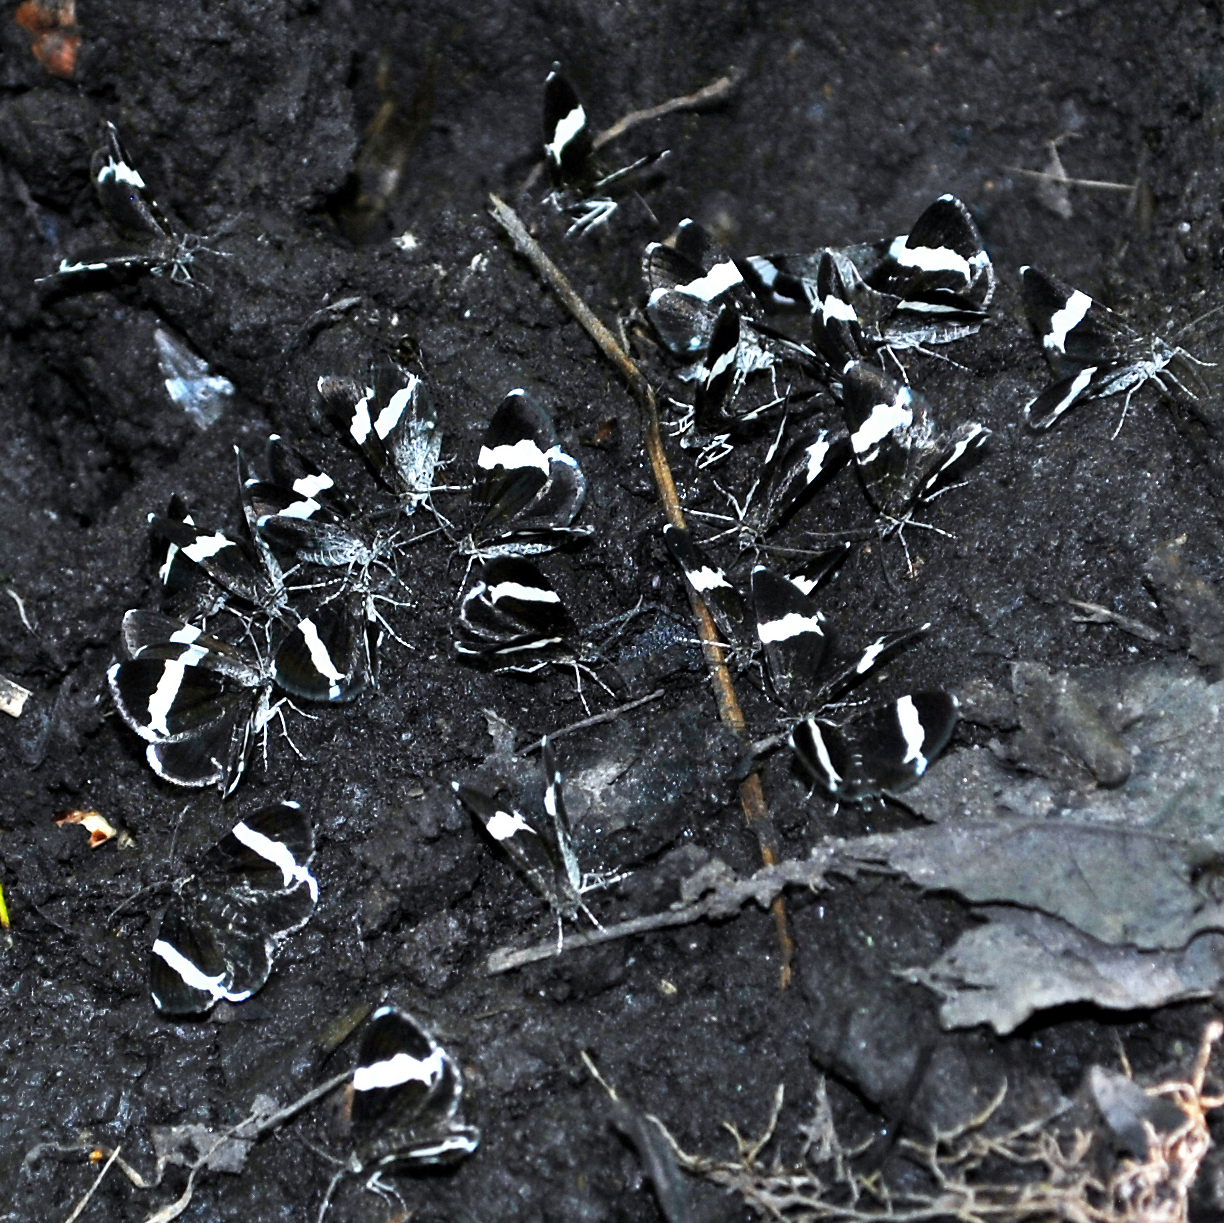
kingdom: Animalia
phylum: Arthropoda
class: Insecta
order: Lepidoptera
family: Geometridae
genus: Trichodezia
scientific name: Trichodezia albovittata
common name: White striped black
